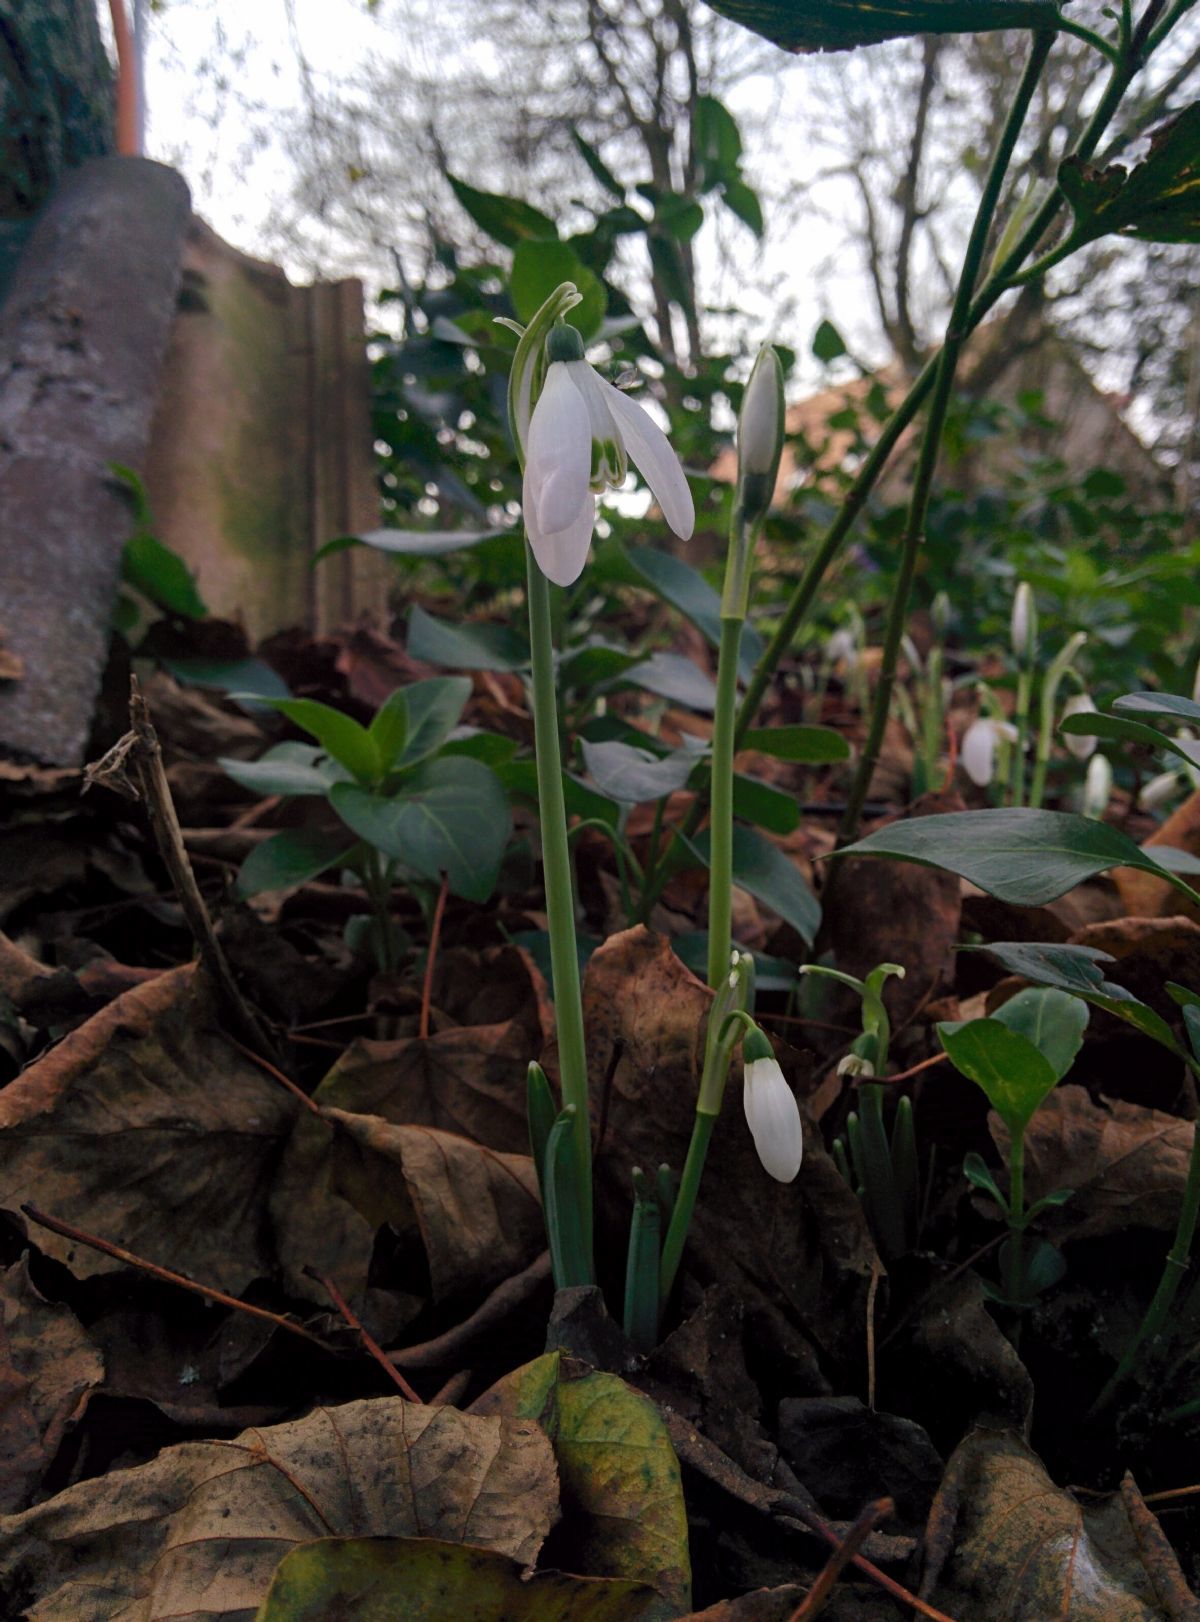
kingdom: Plantae
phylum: Tracheophyta
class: Liliopsida
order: Asparagales
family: Amaryllidaceae
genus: Galanthus
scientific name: Galanthus nivalis
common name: Snowdrop
